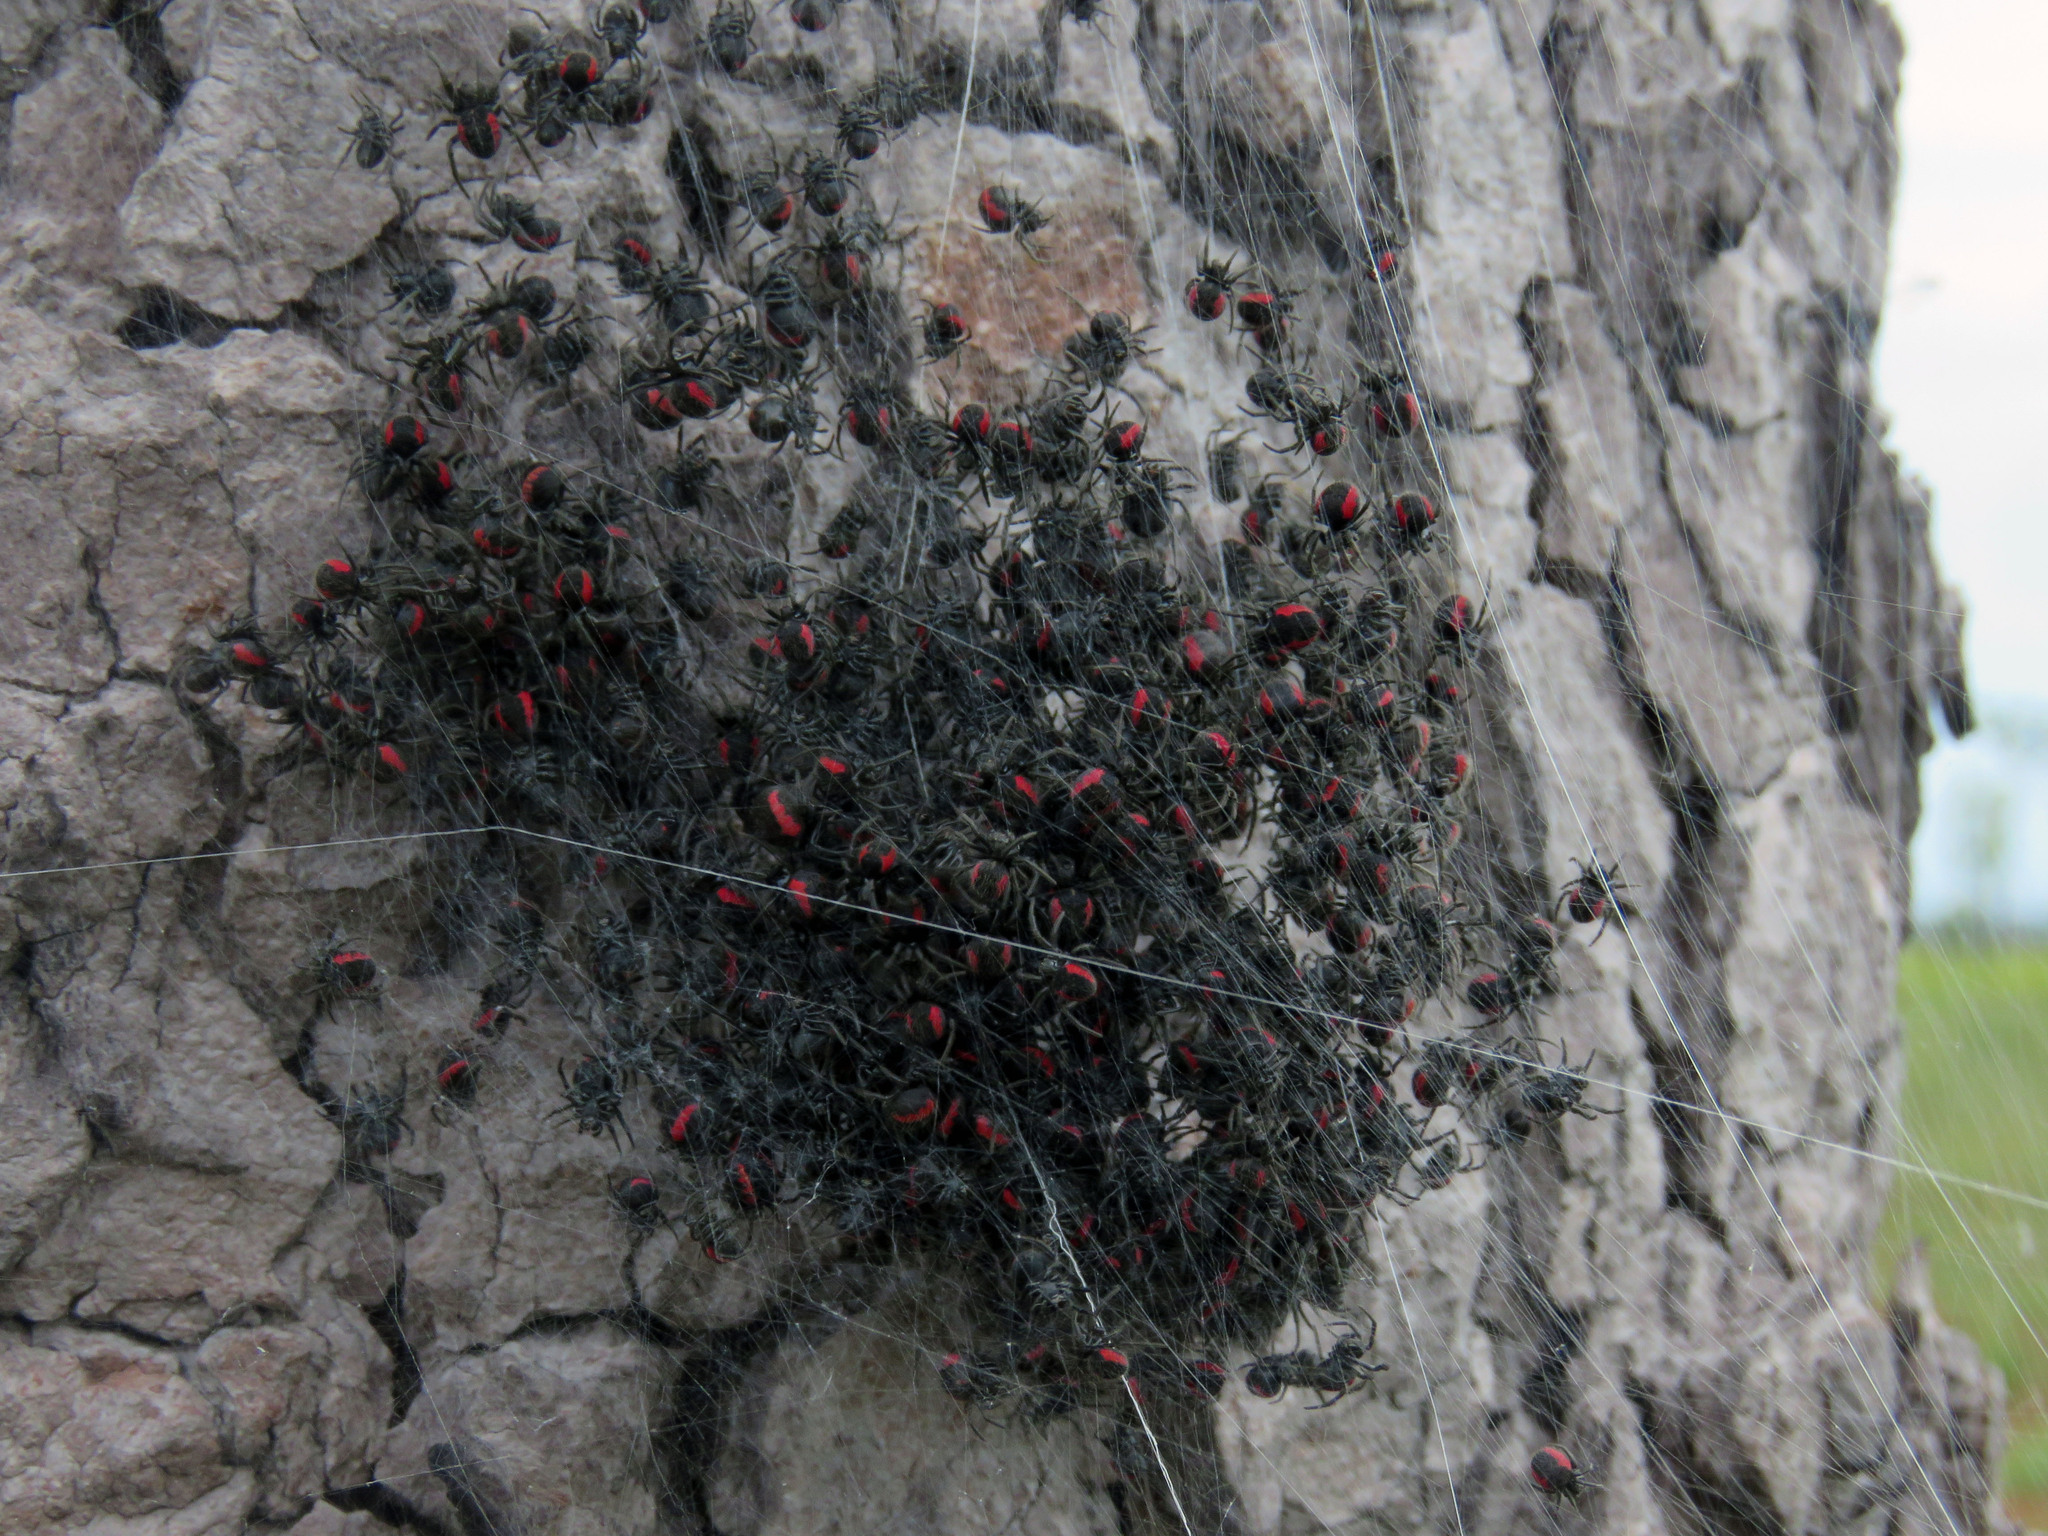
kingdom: Animalia
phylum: Arthropoda
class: Arachnida
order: Araneae
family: Araneidae
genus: Parawixia
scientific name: Parawixia bistriata
